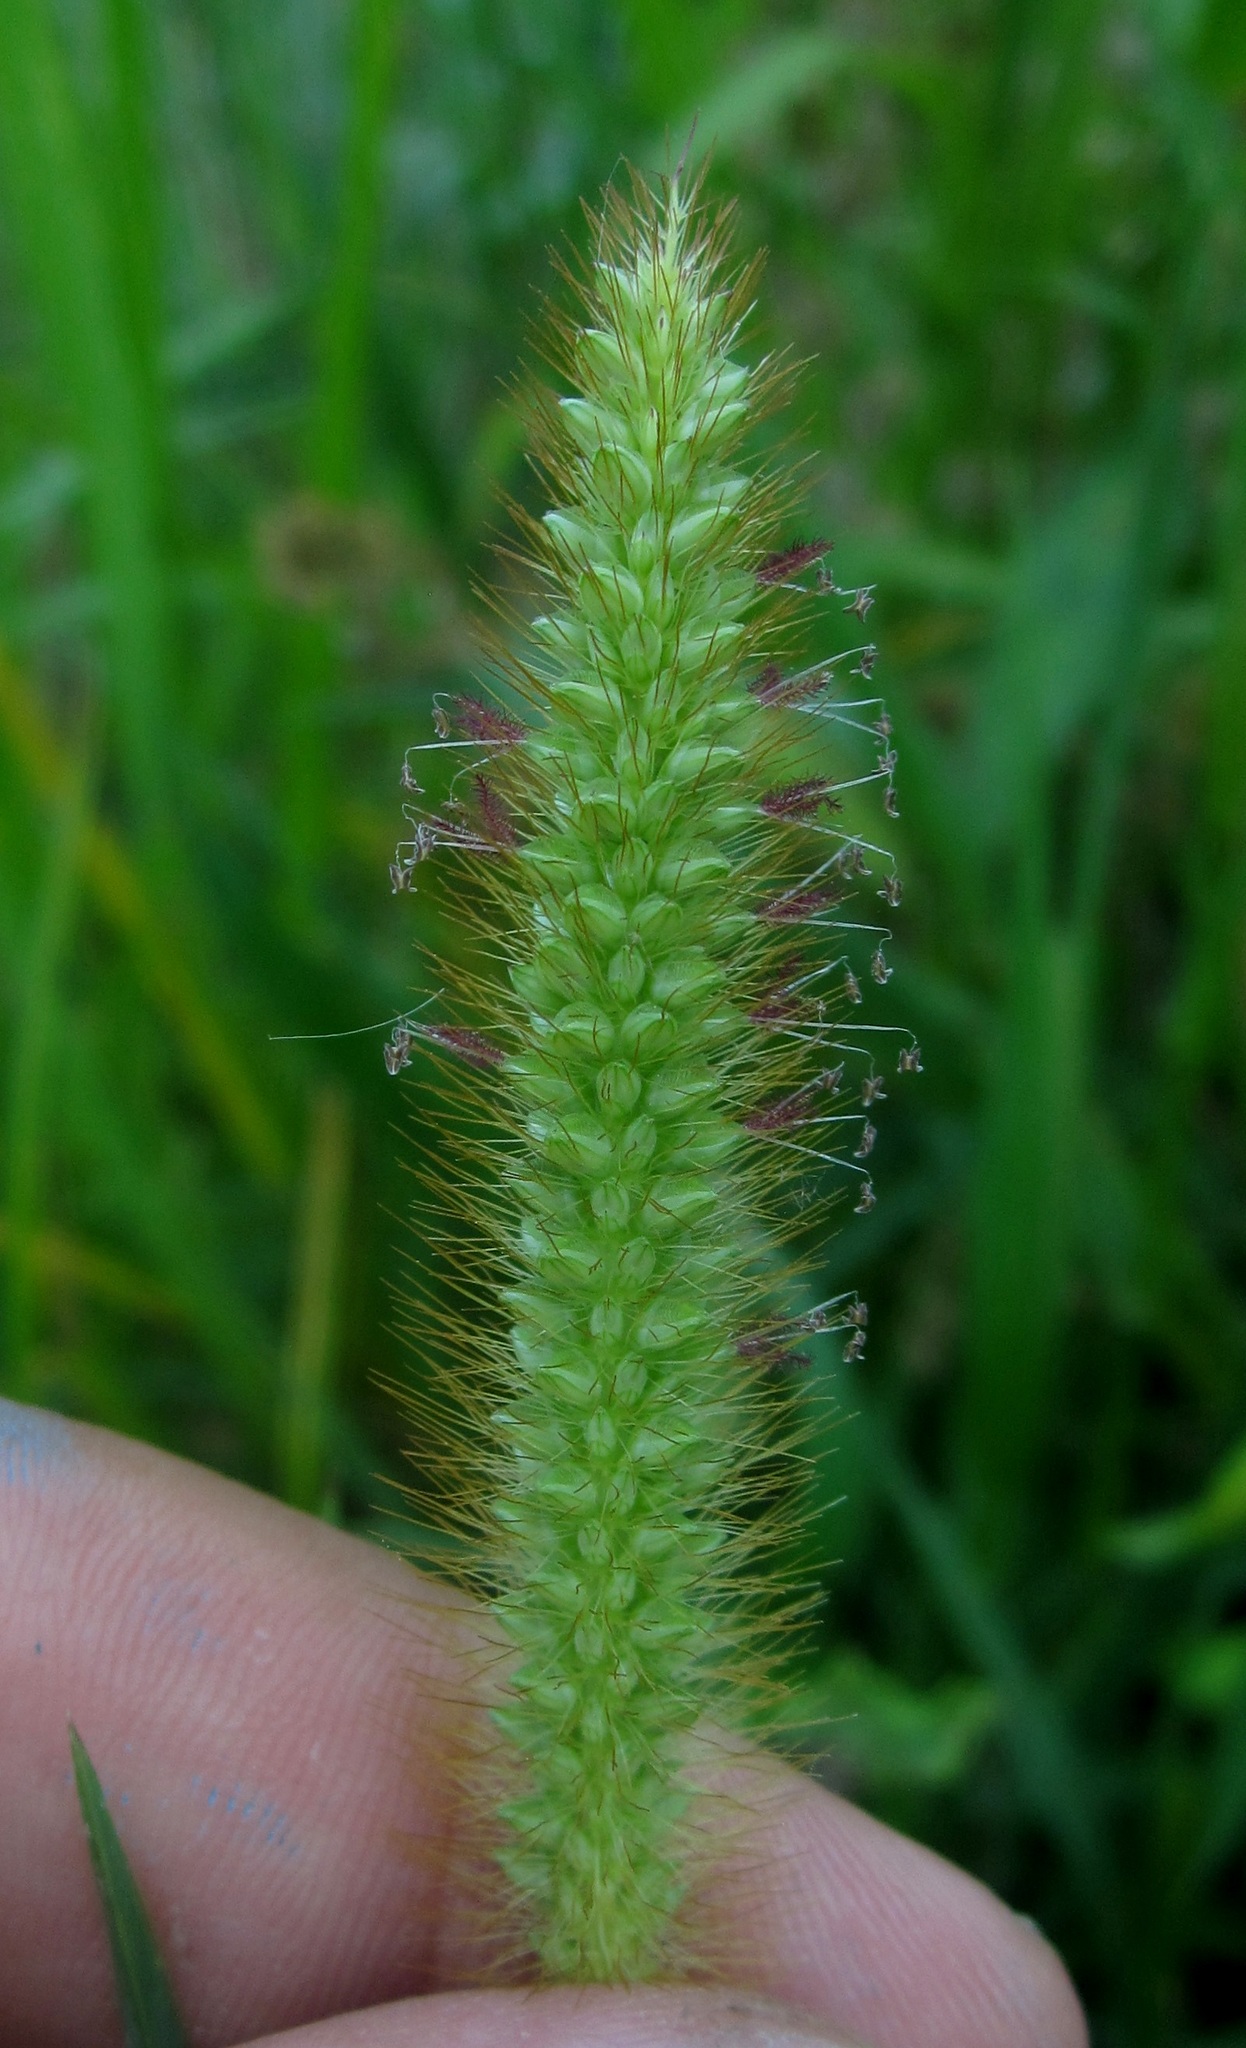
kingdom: Plantae
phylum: Tracheophyta
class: Liliopsida
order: Poales
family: Poaceae
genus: Setaria
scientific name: Setaria pumila
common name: Yellow bristle-grass
